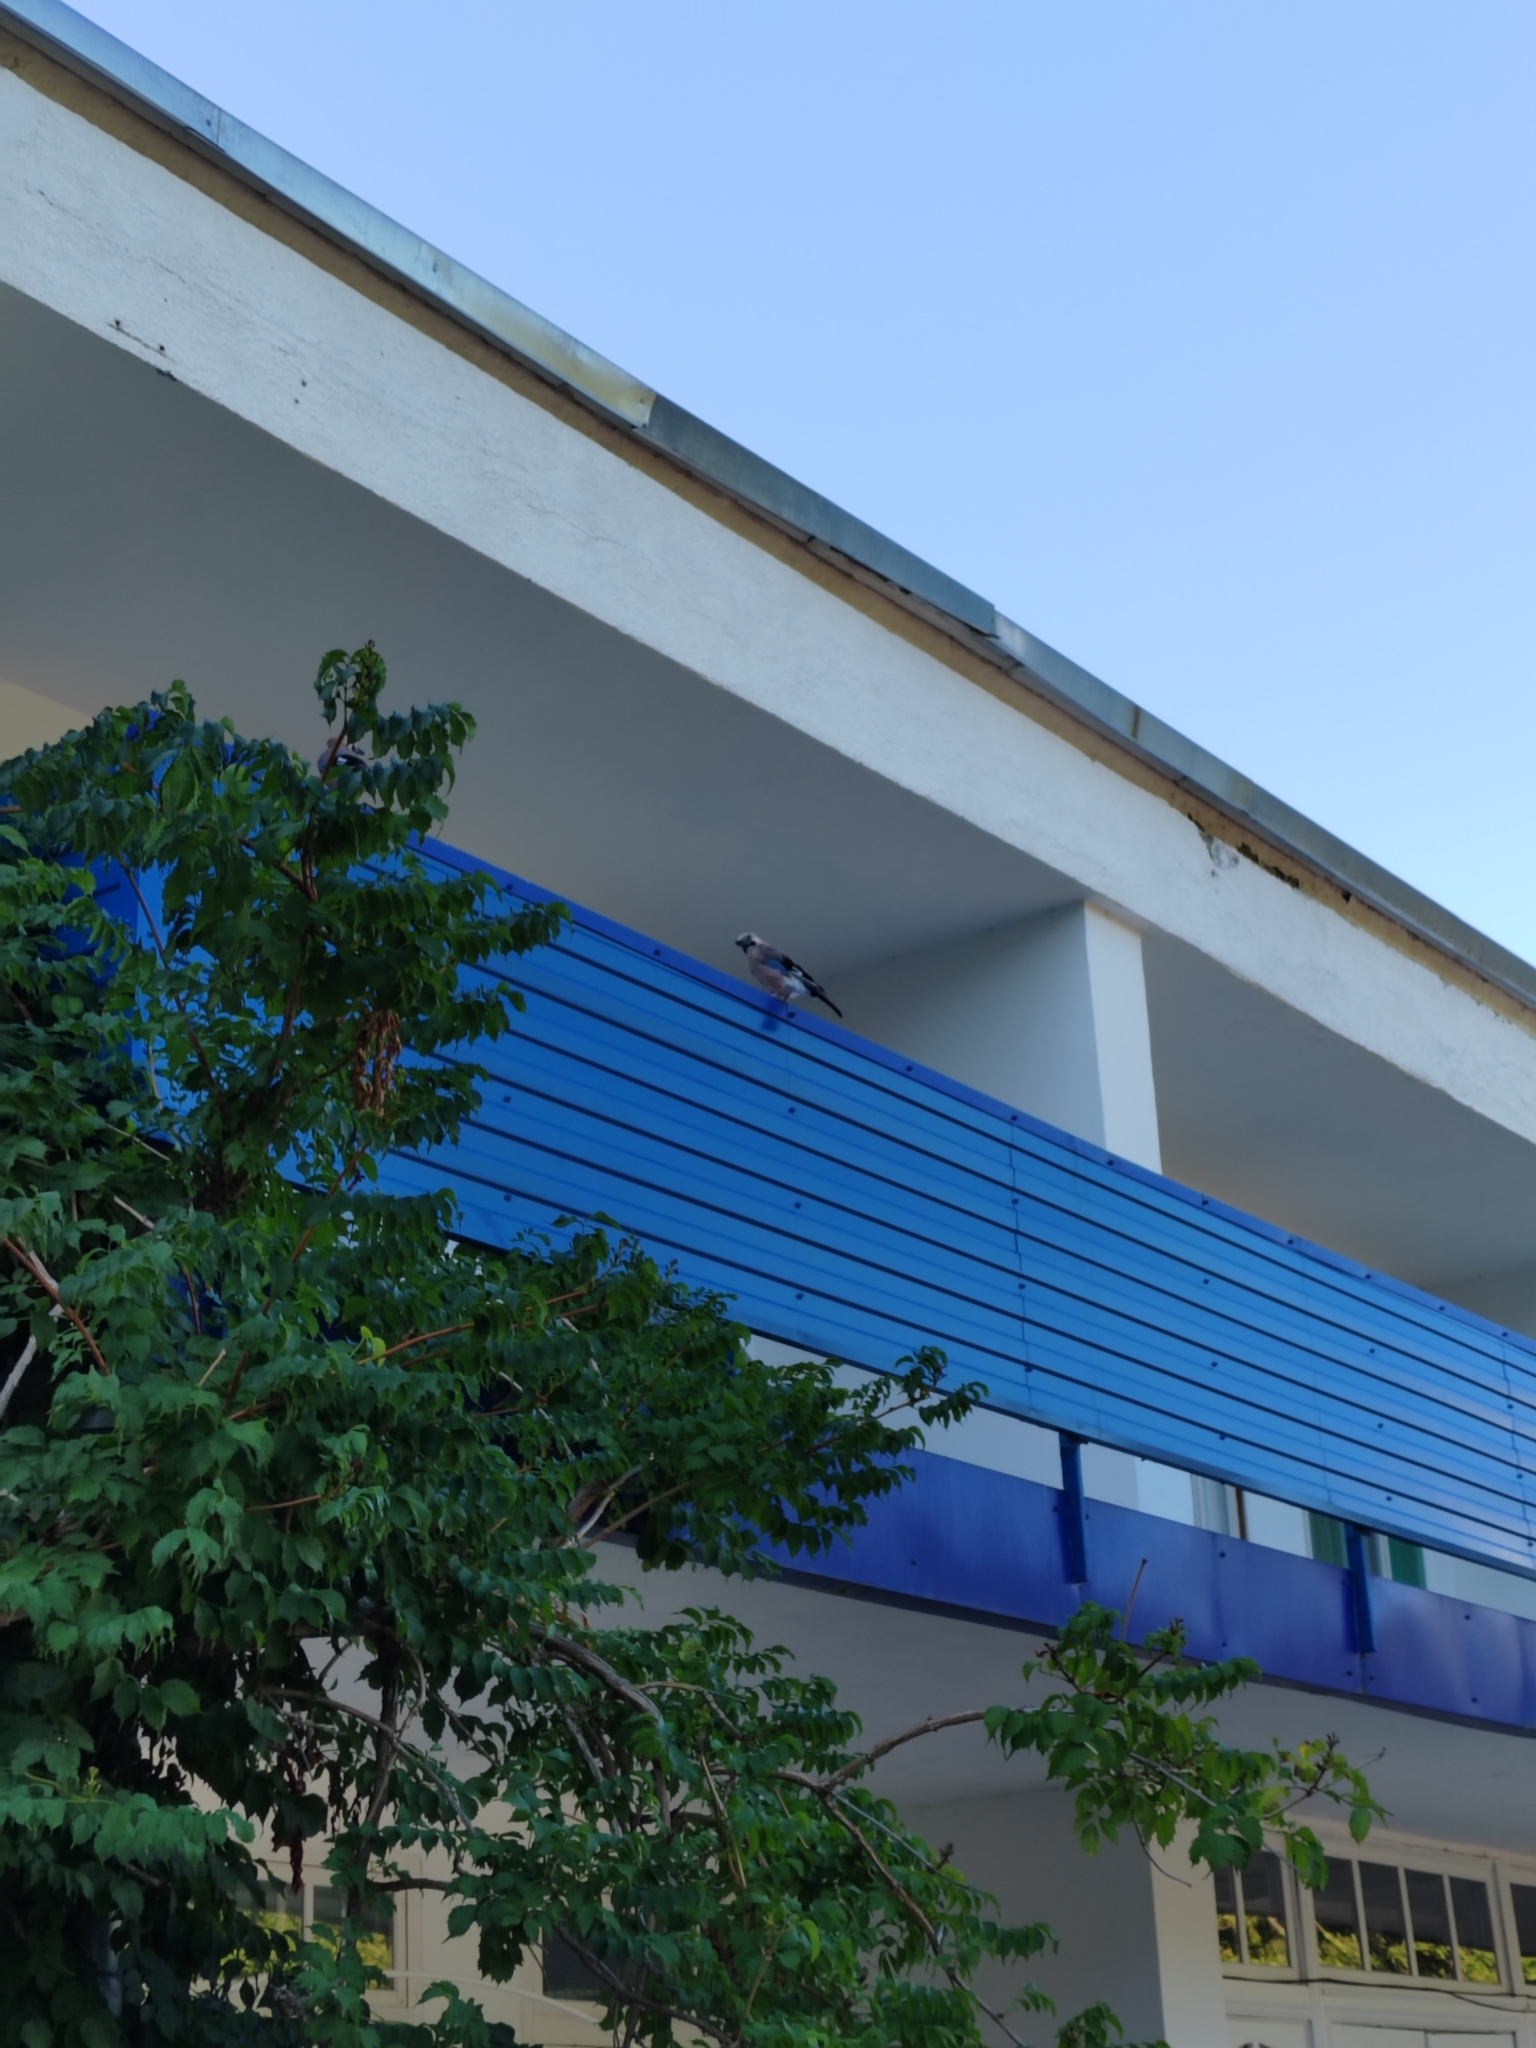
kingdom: Animalia
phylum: Chordata
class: Aves
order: Passeriformes
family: Corvidae
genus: Garrulus
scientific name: Garrulus glandarius
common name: Eurasian jay
